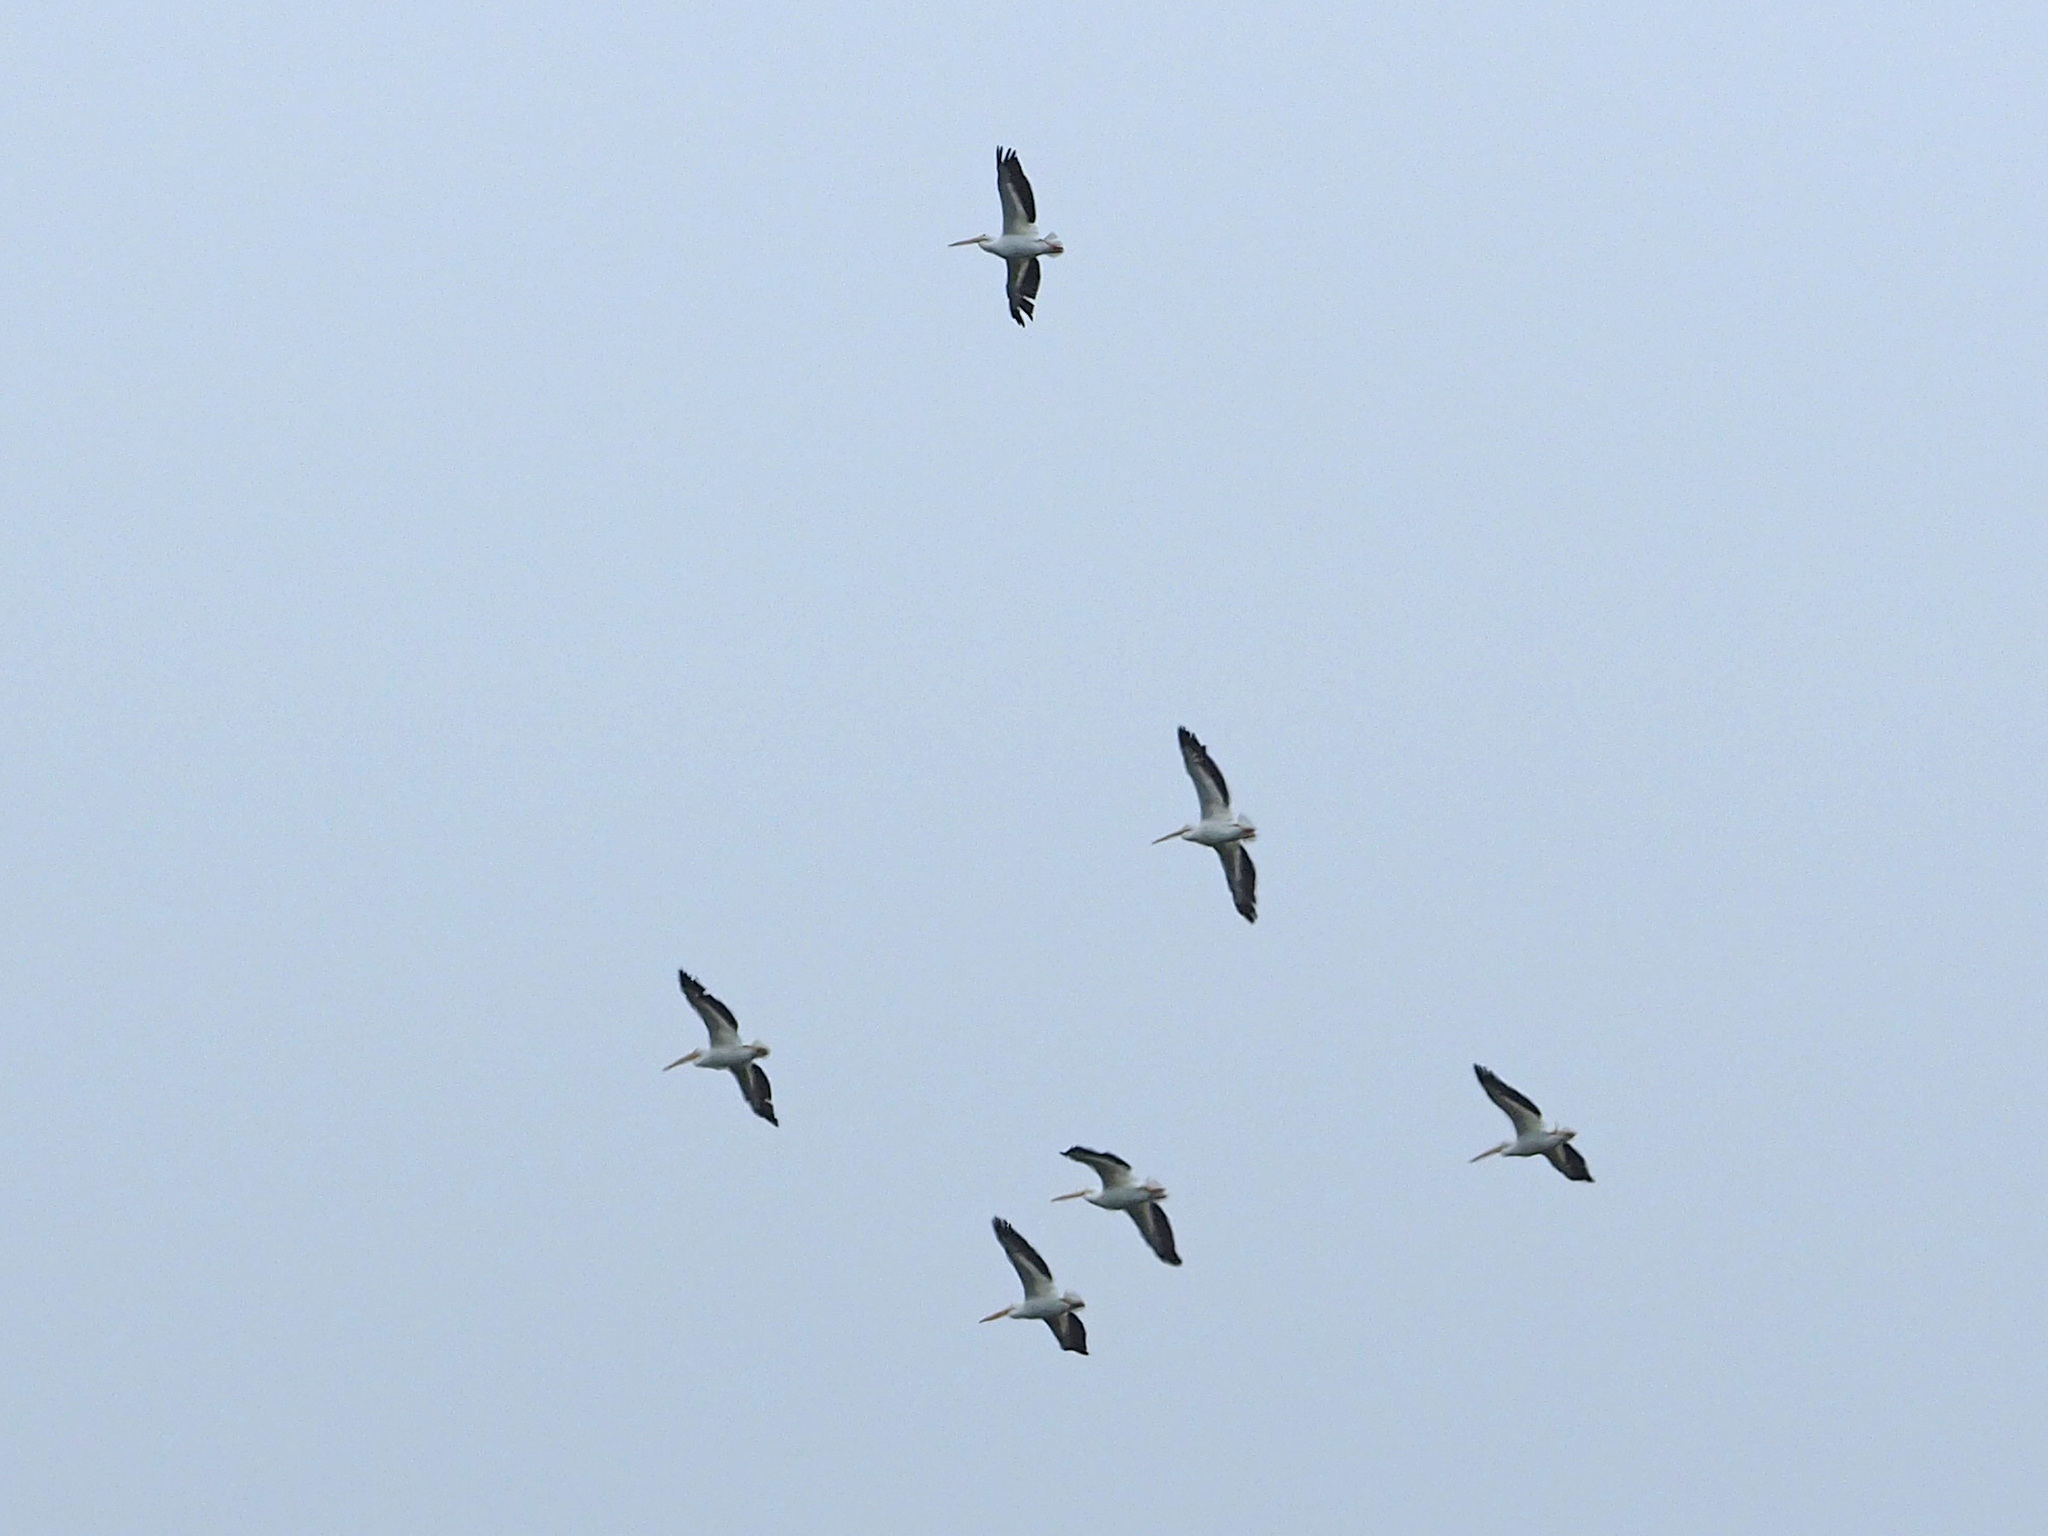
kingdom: Animalia
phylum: Chordata
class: Aves
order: Pelecaniformes
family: Pelecanidae
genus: Pelecanus
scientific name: Pelecanus erythrorhynchos
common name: American white pelican
